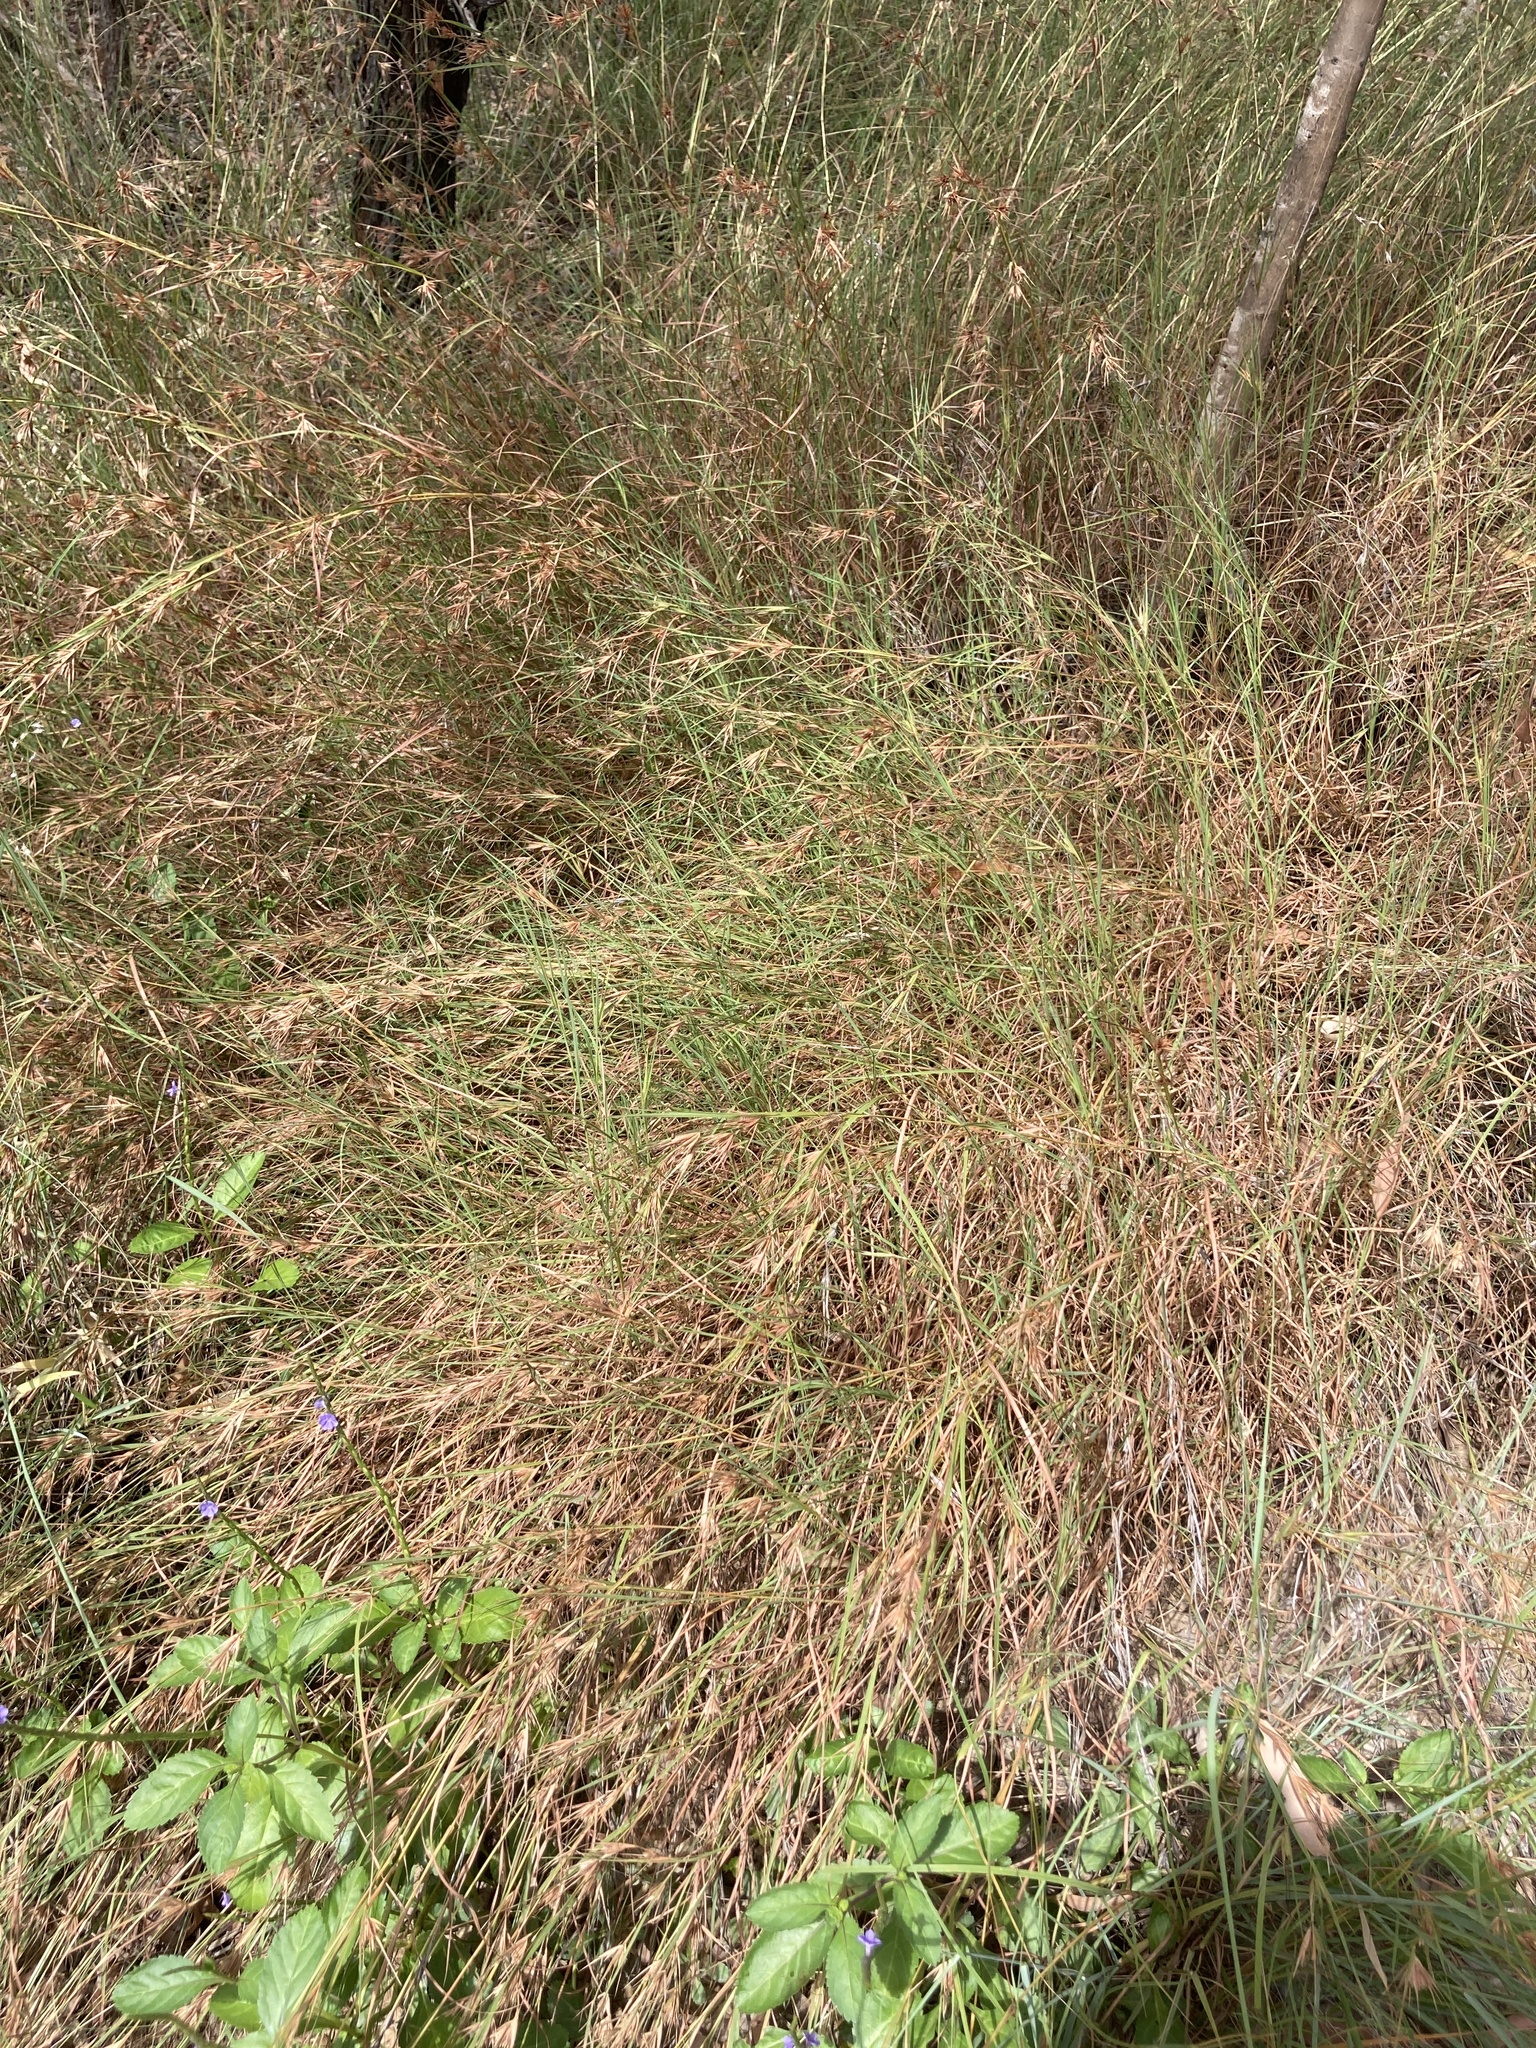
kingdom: Plantae
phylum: Tracheophyta
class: Liliopsida
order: Poales
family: Poaceae
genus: Themeda
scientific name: Themeda triandra
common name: Kangaroo grass
